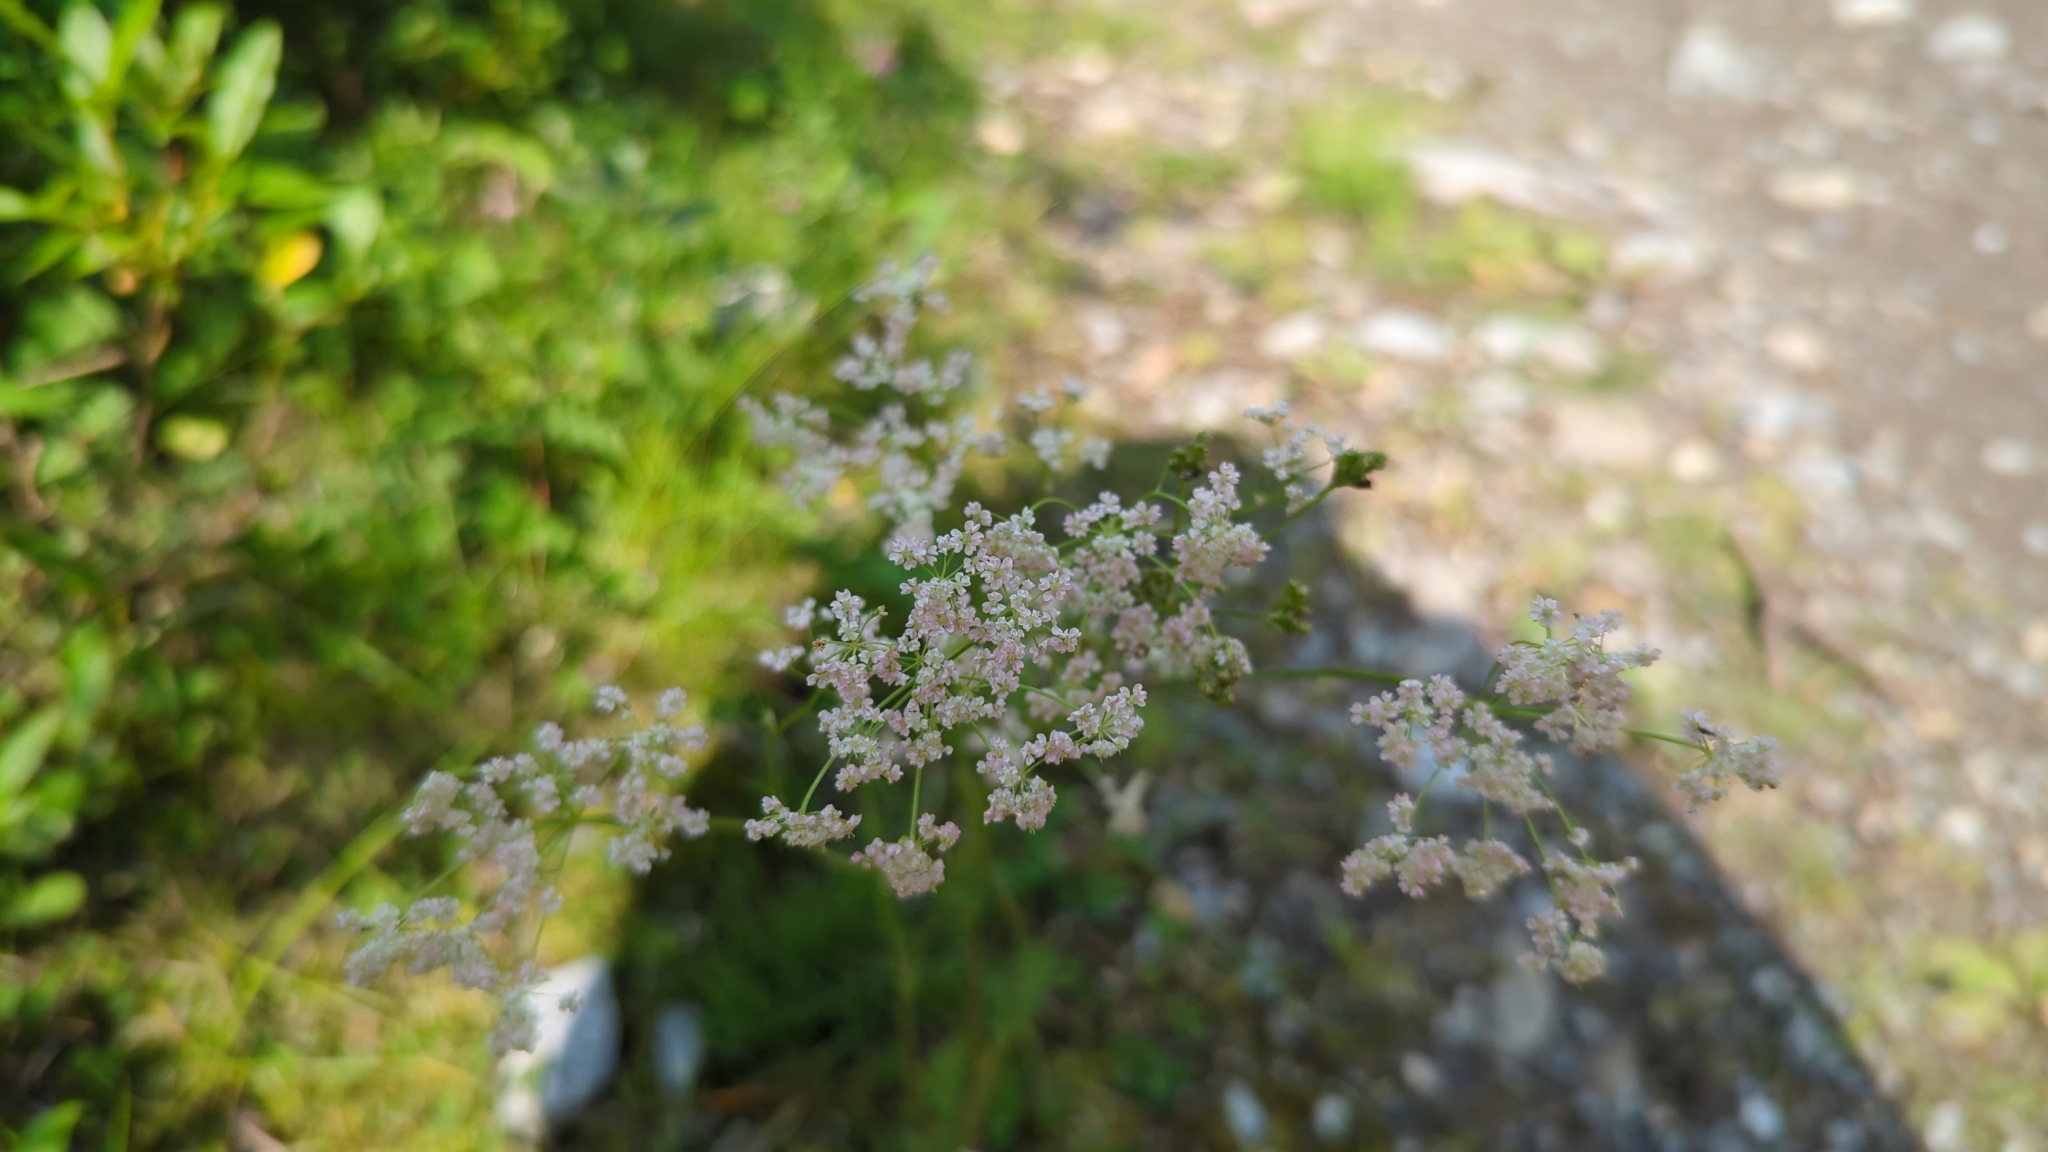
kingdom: Plantae
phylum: Tracheophyta
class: Magnoliopsida
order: Apiales
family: Apiaceae
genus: Carum
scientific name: Carum carvi
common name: Caraway
